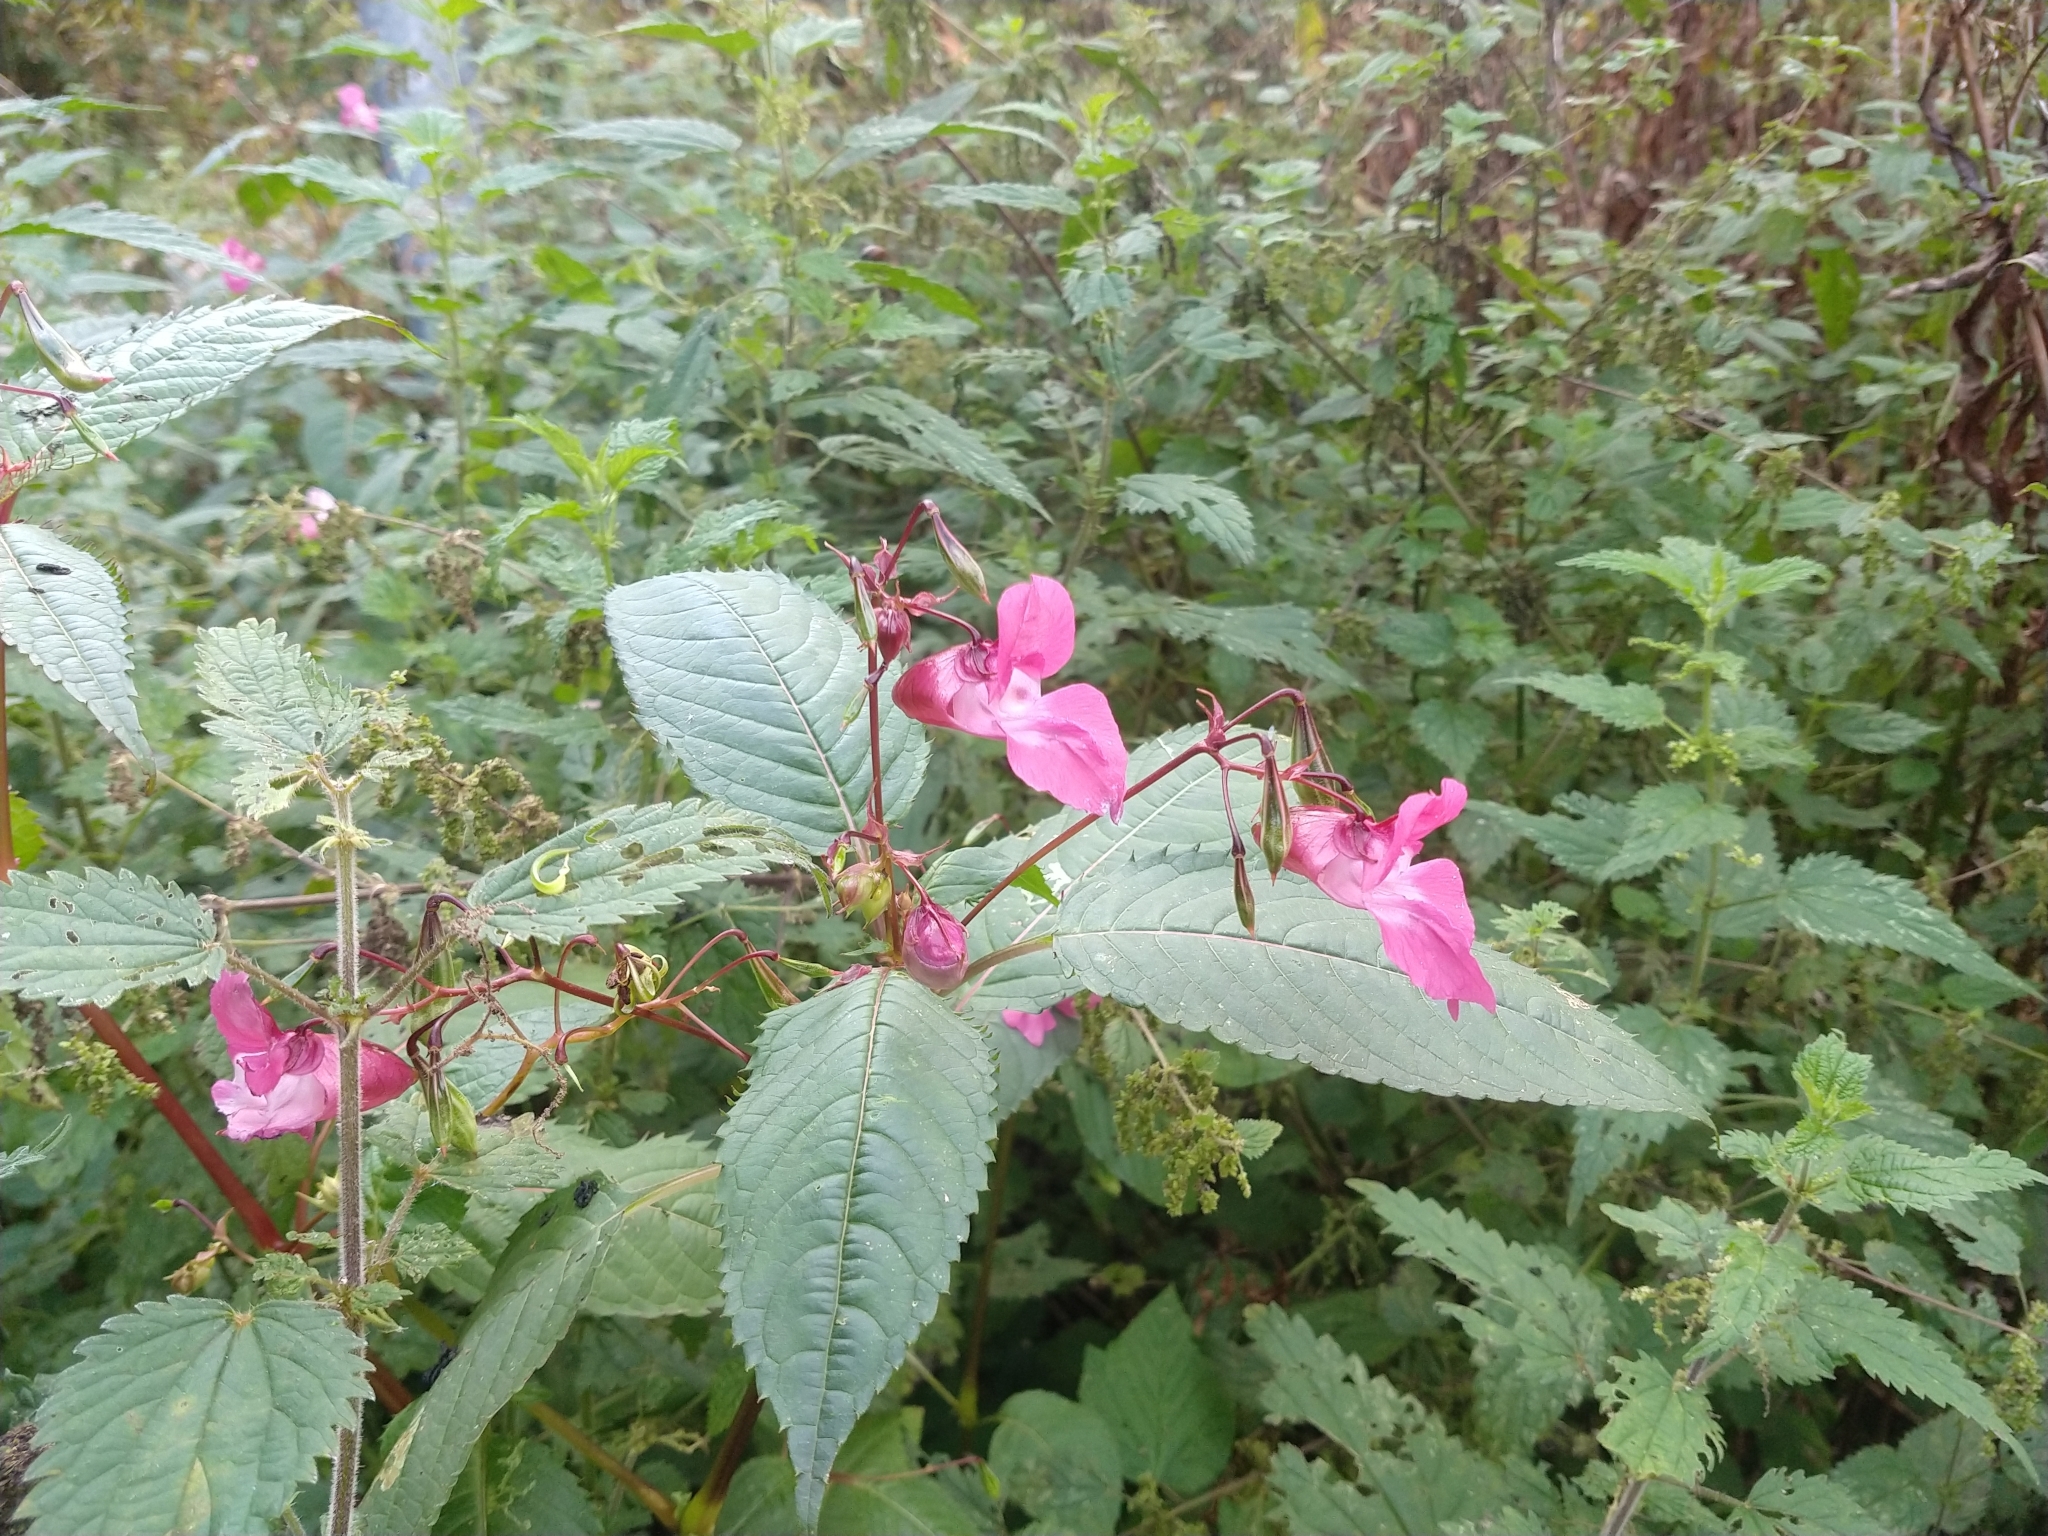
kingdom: Plantae
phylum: Tracheophyta
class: Magnoliopsida
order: Ericales
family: Balsaminaceae
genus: Impatiens
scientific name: Impatiens glandulifera
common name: Himalayan balsam
